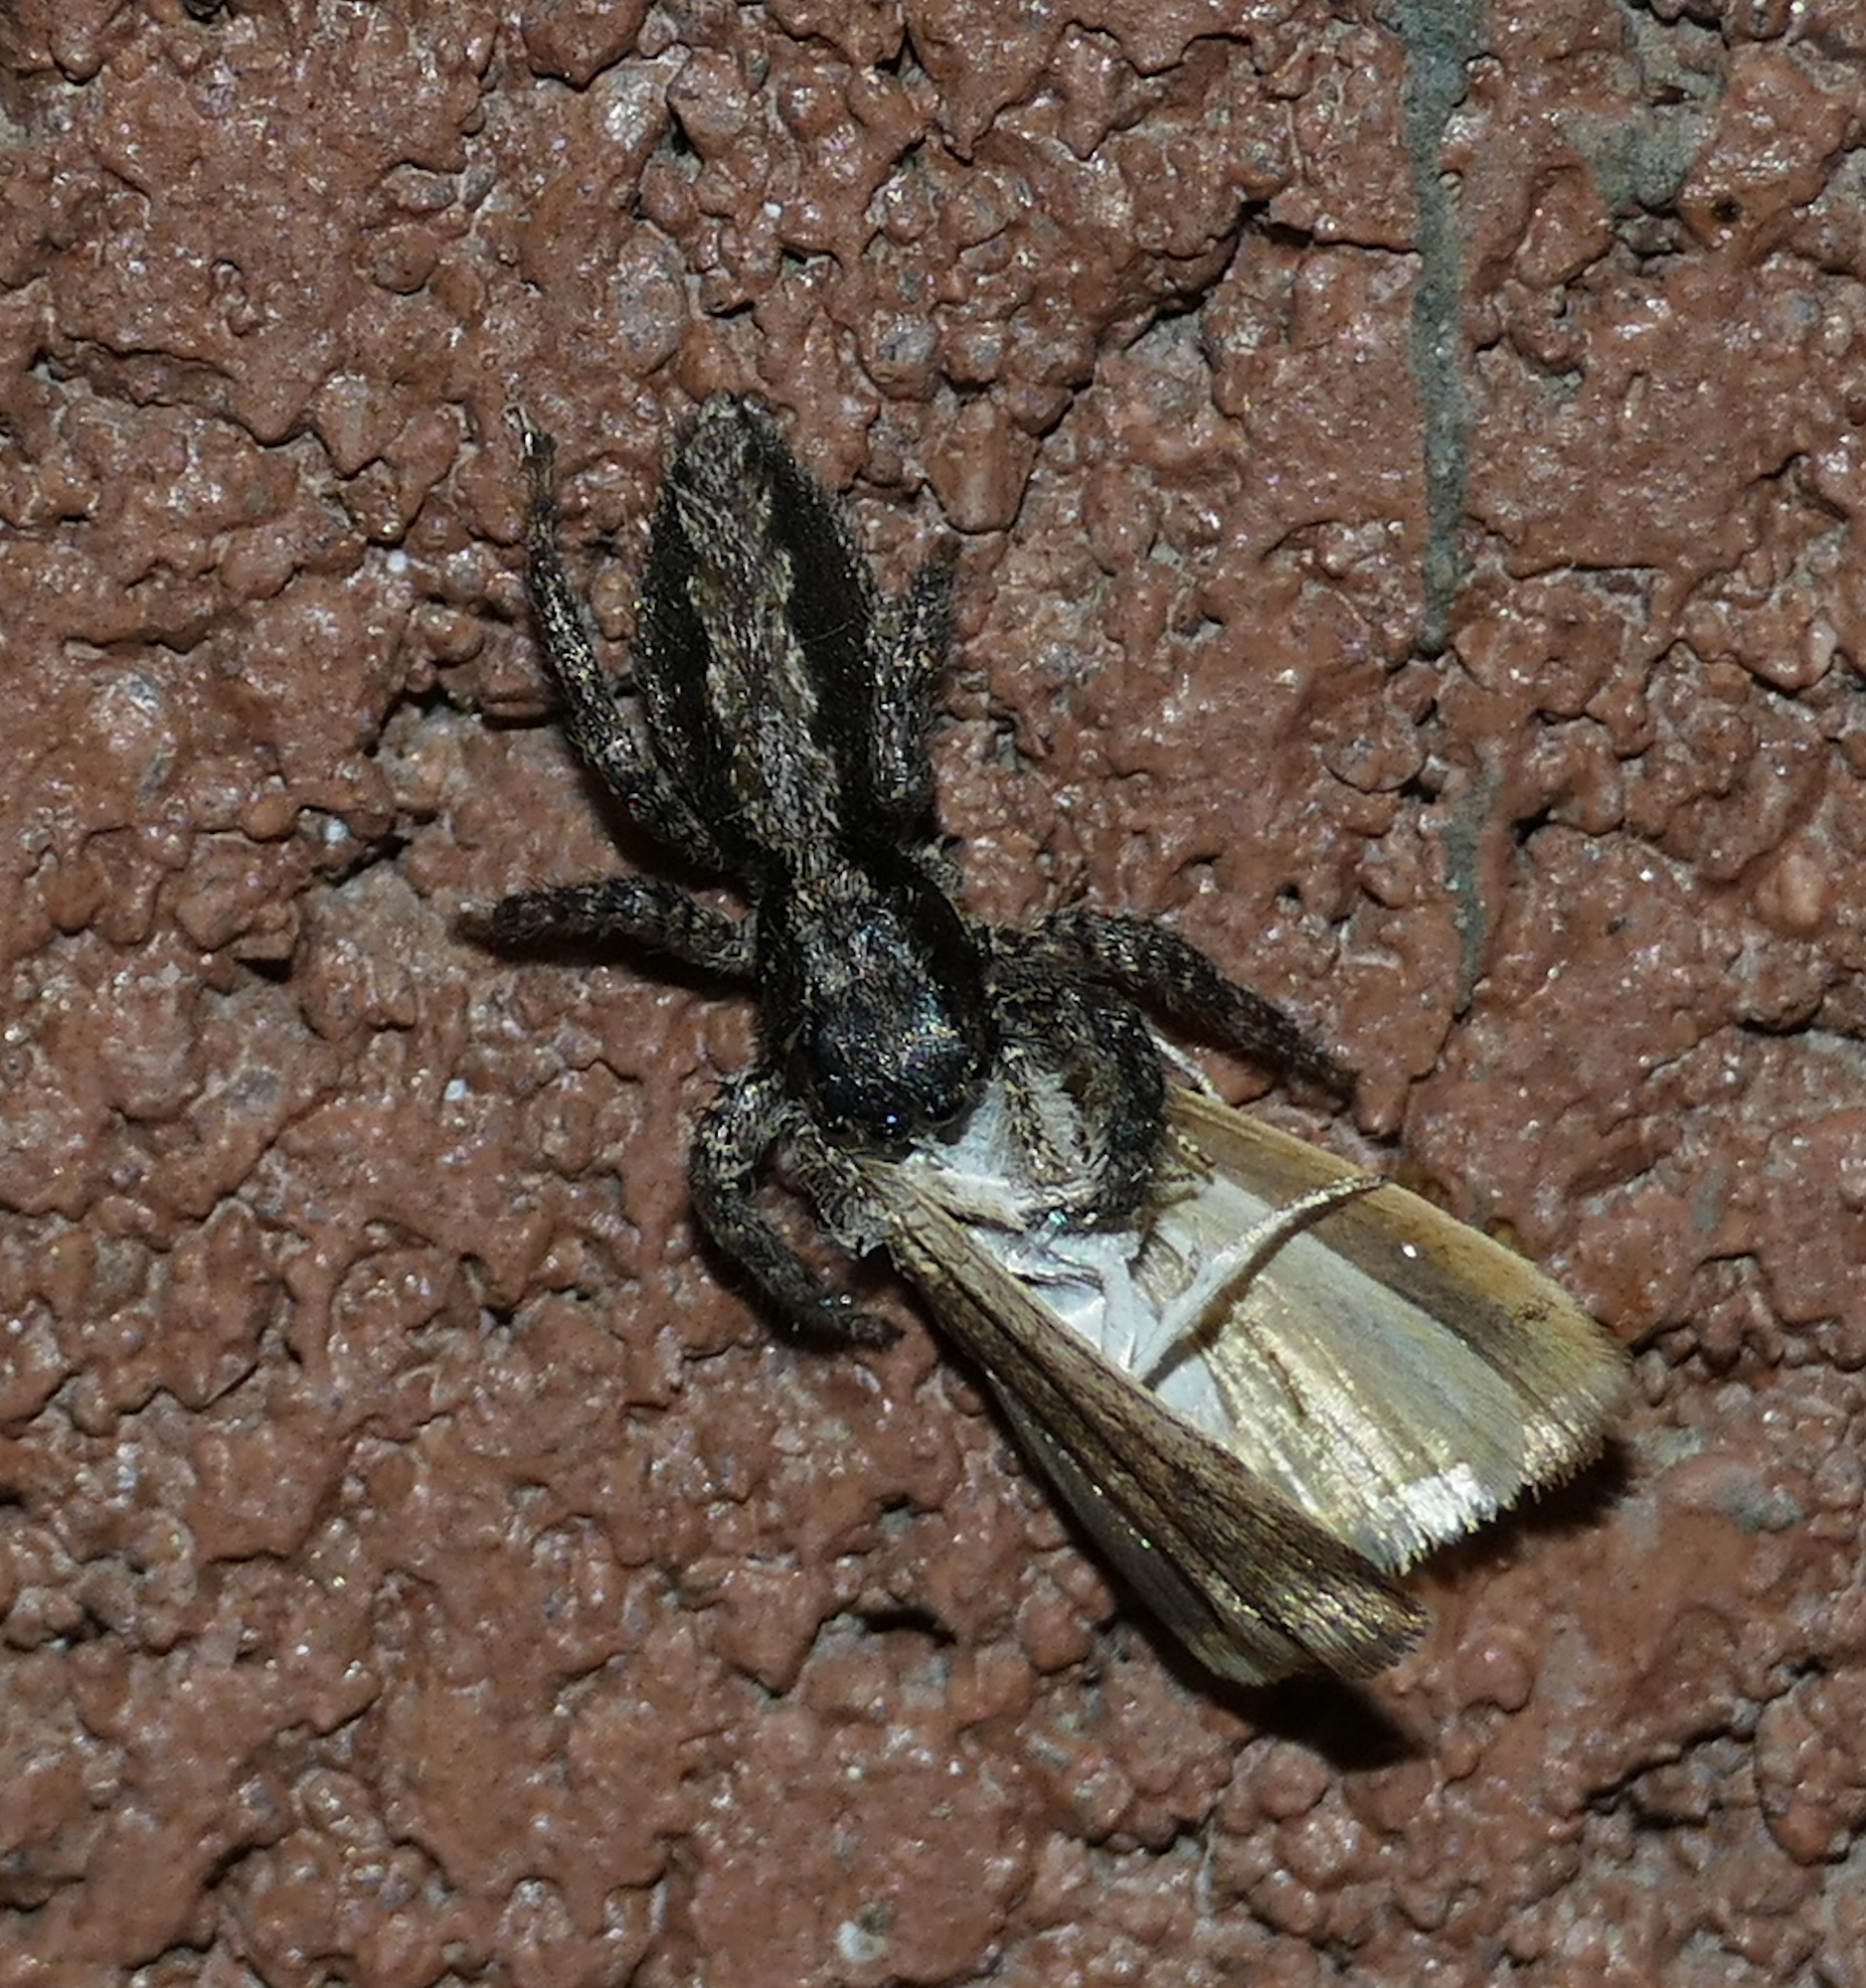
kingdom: Animalia
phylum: Arthropoda
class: Arachnida
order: Araneae
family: Salticidae
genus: Platycryptus
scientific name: Platycryptus californicus
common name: Jumping spiders
